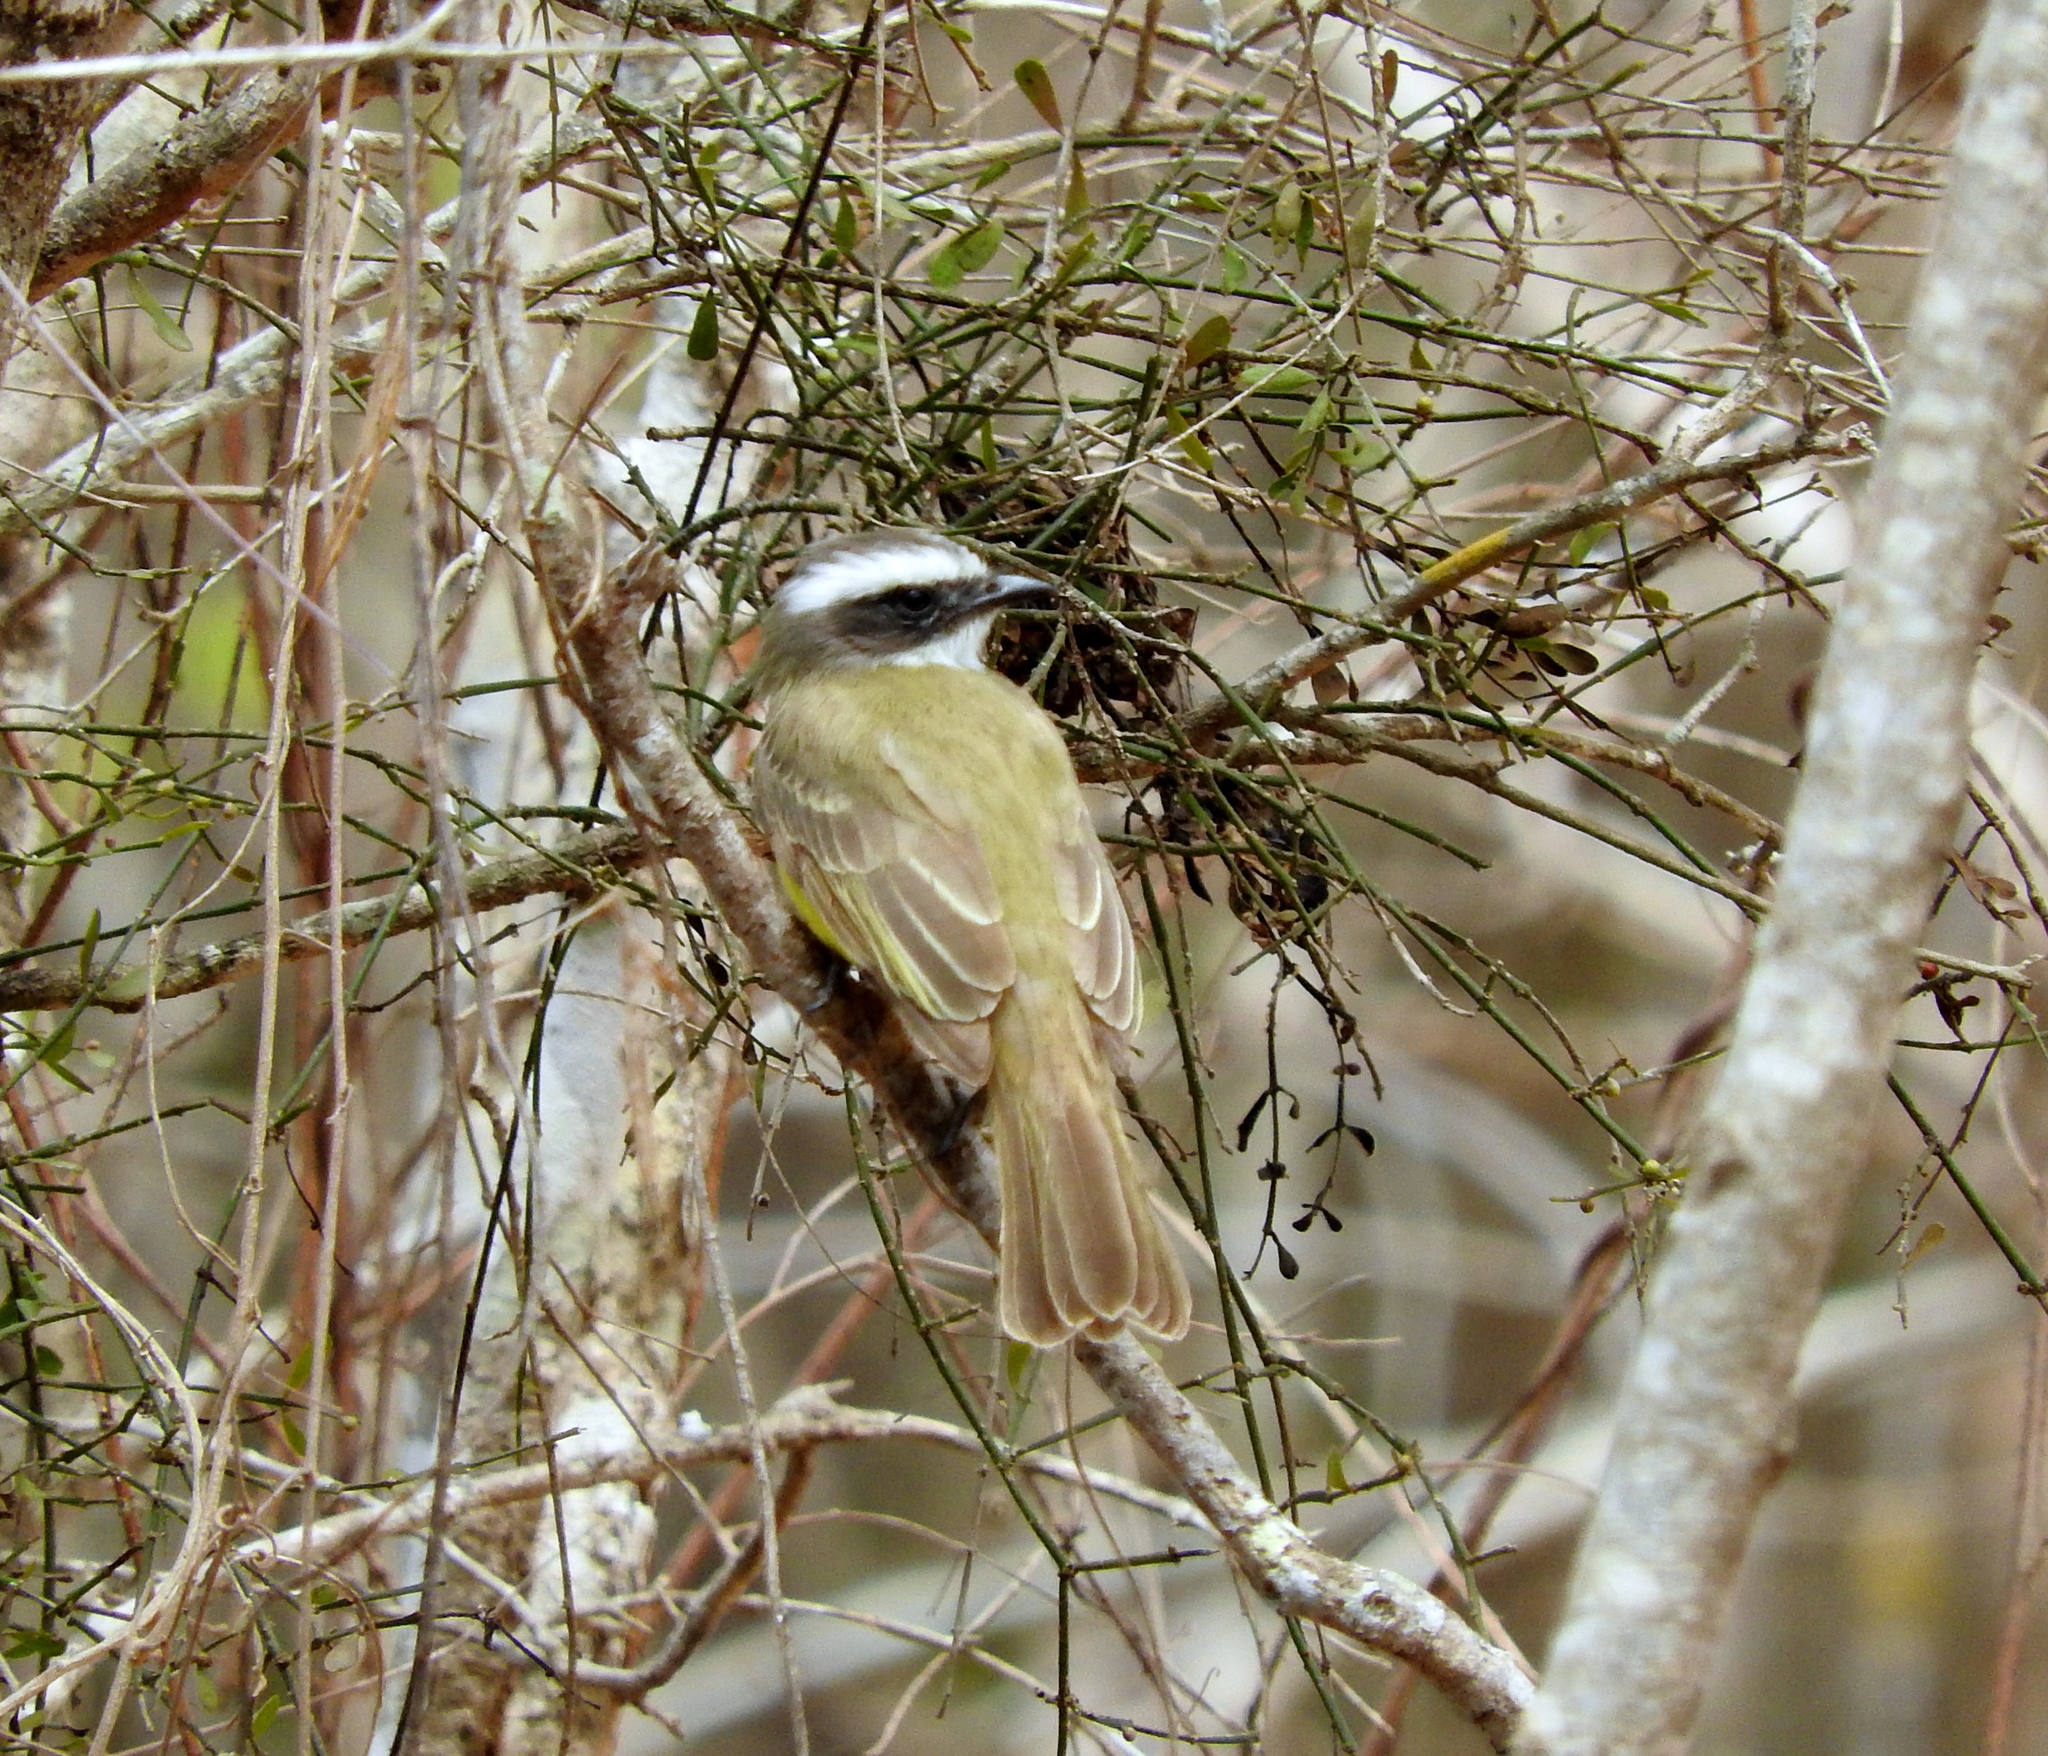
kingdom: Animalia
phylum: Chordata
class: Aves
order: Passeriformes
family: Tyrannidae
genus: Myiozetetes
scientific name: Myiozetetes similis
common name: Social flycatcher
